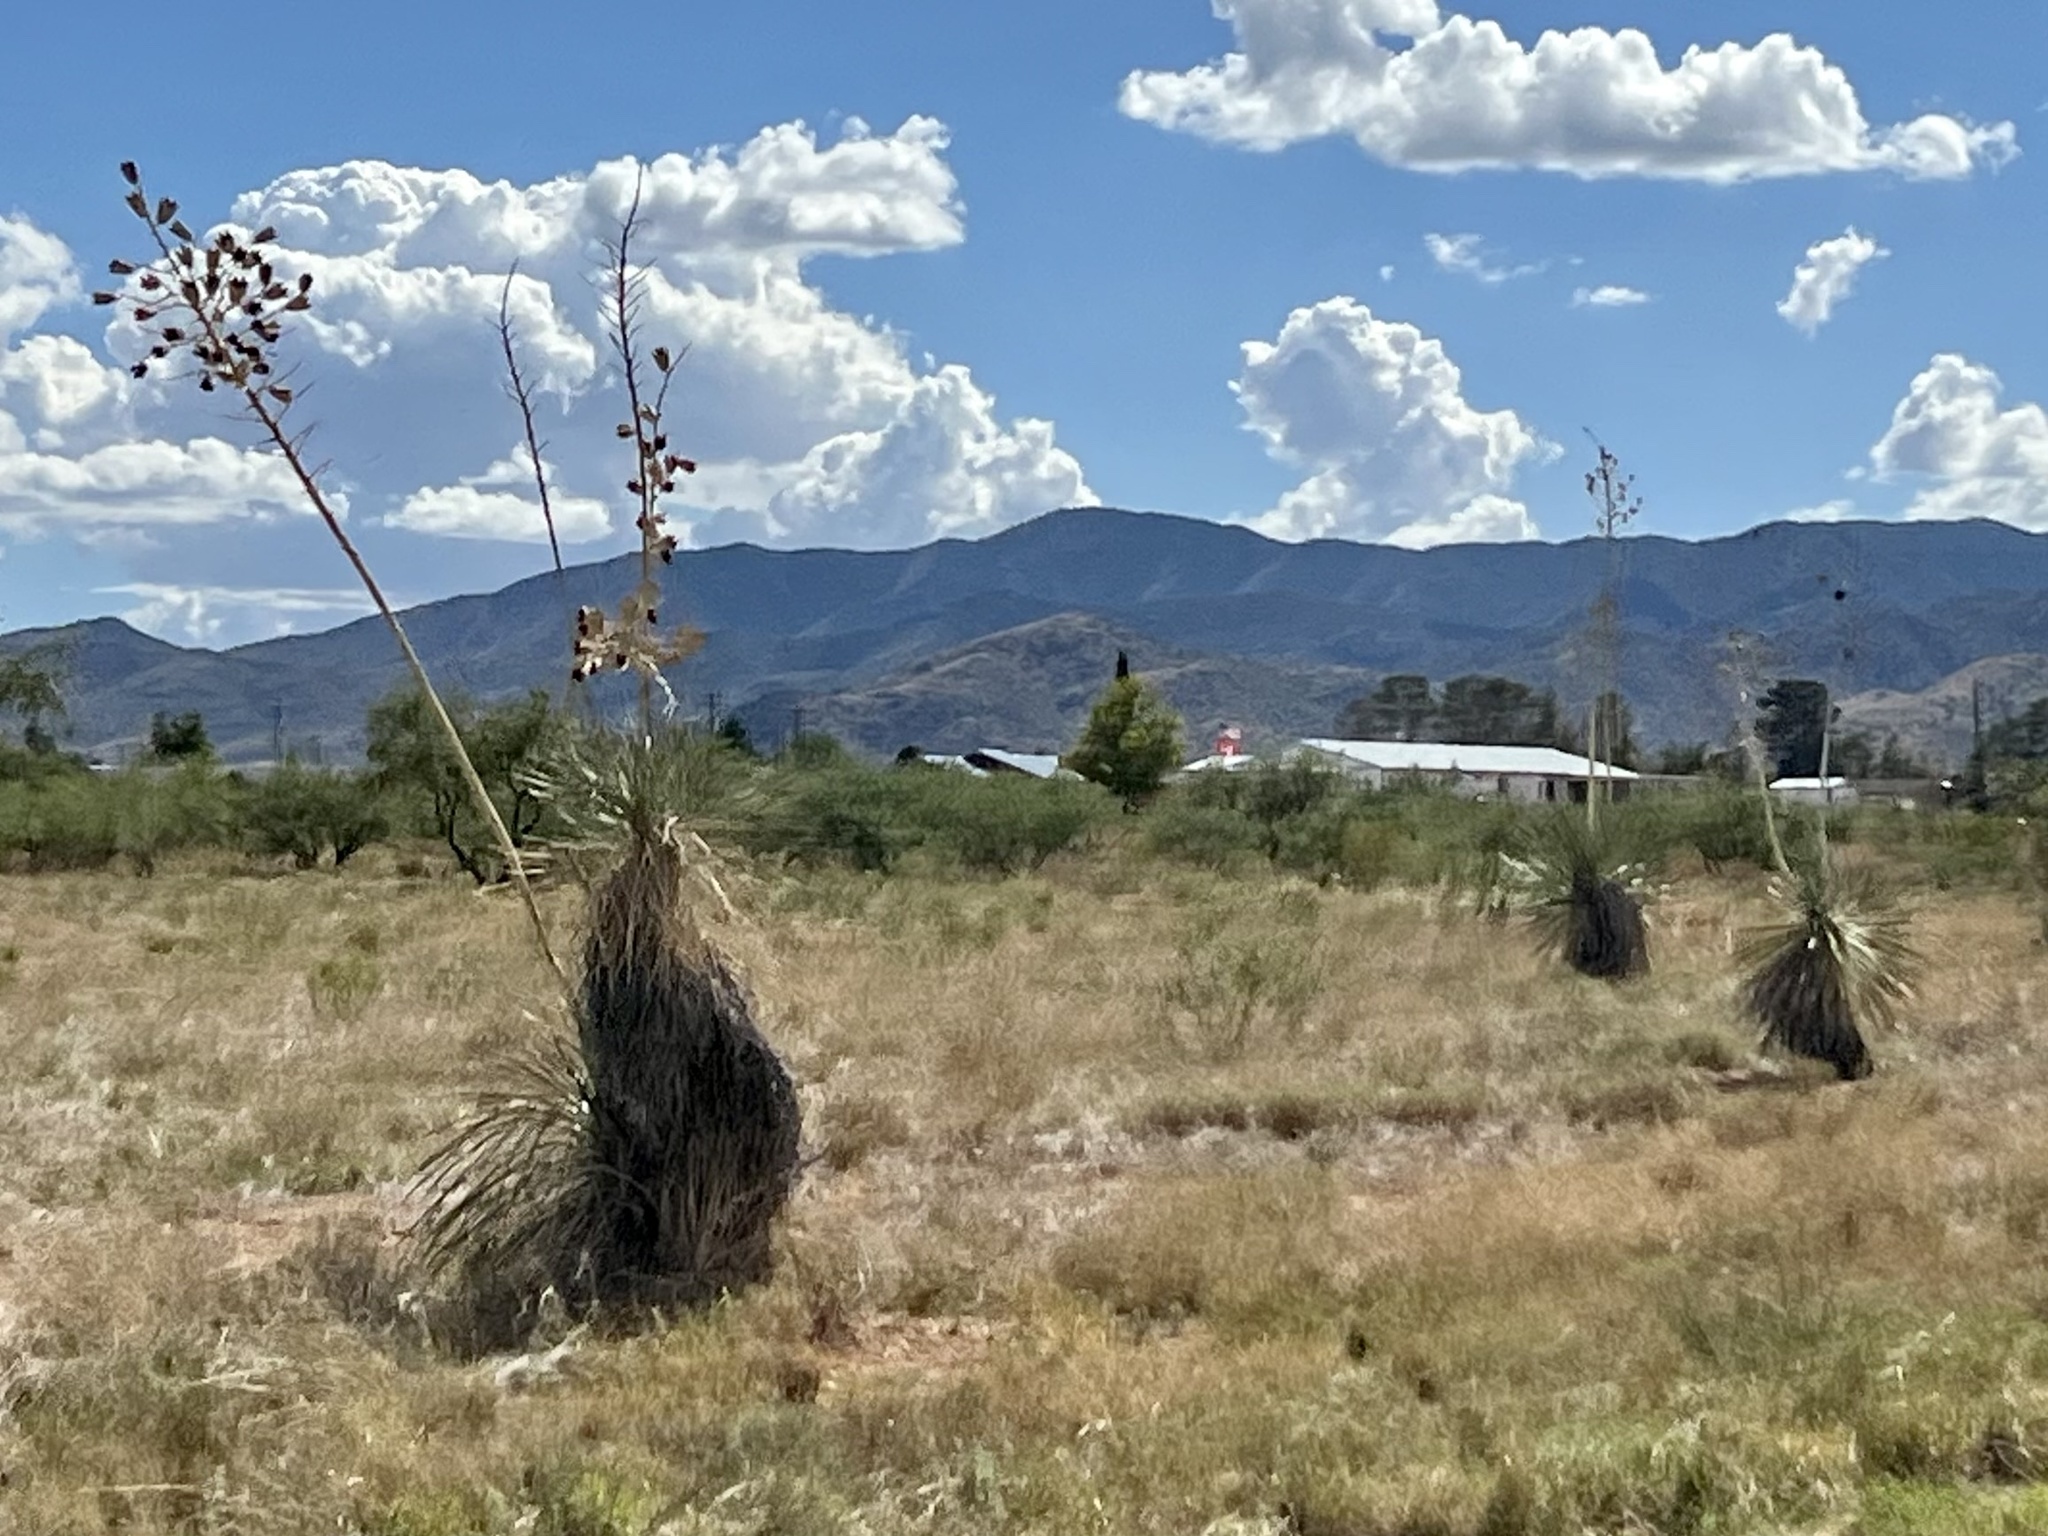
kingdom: Plantae
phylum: Tracheophyta
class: Liliopsida
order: Asparagales
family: Asparagaceae
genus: Yucca
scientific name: Yucca elata
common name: Palmella
